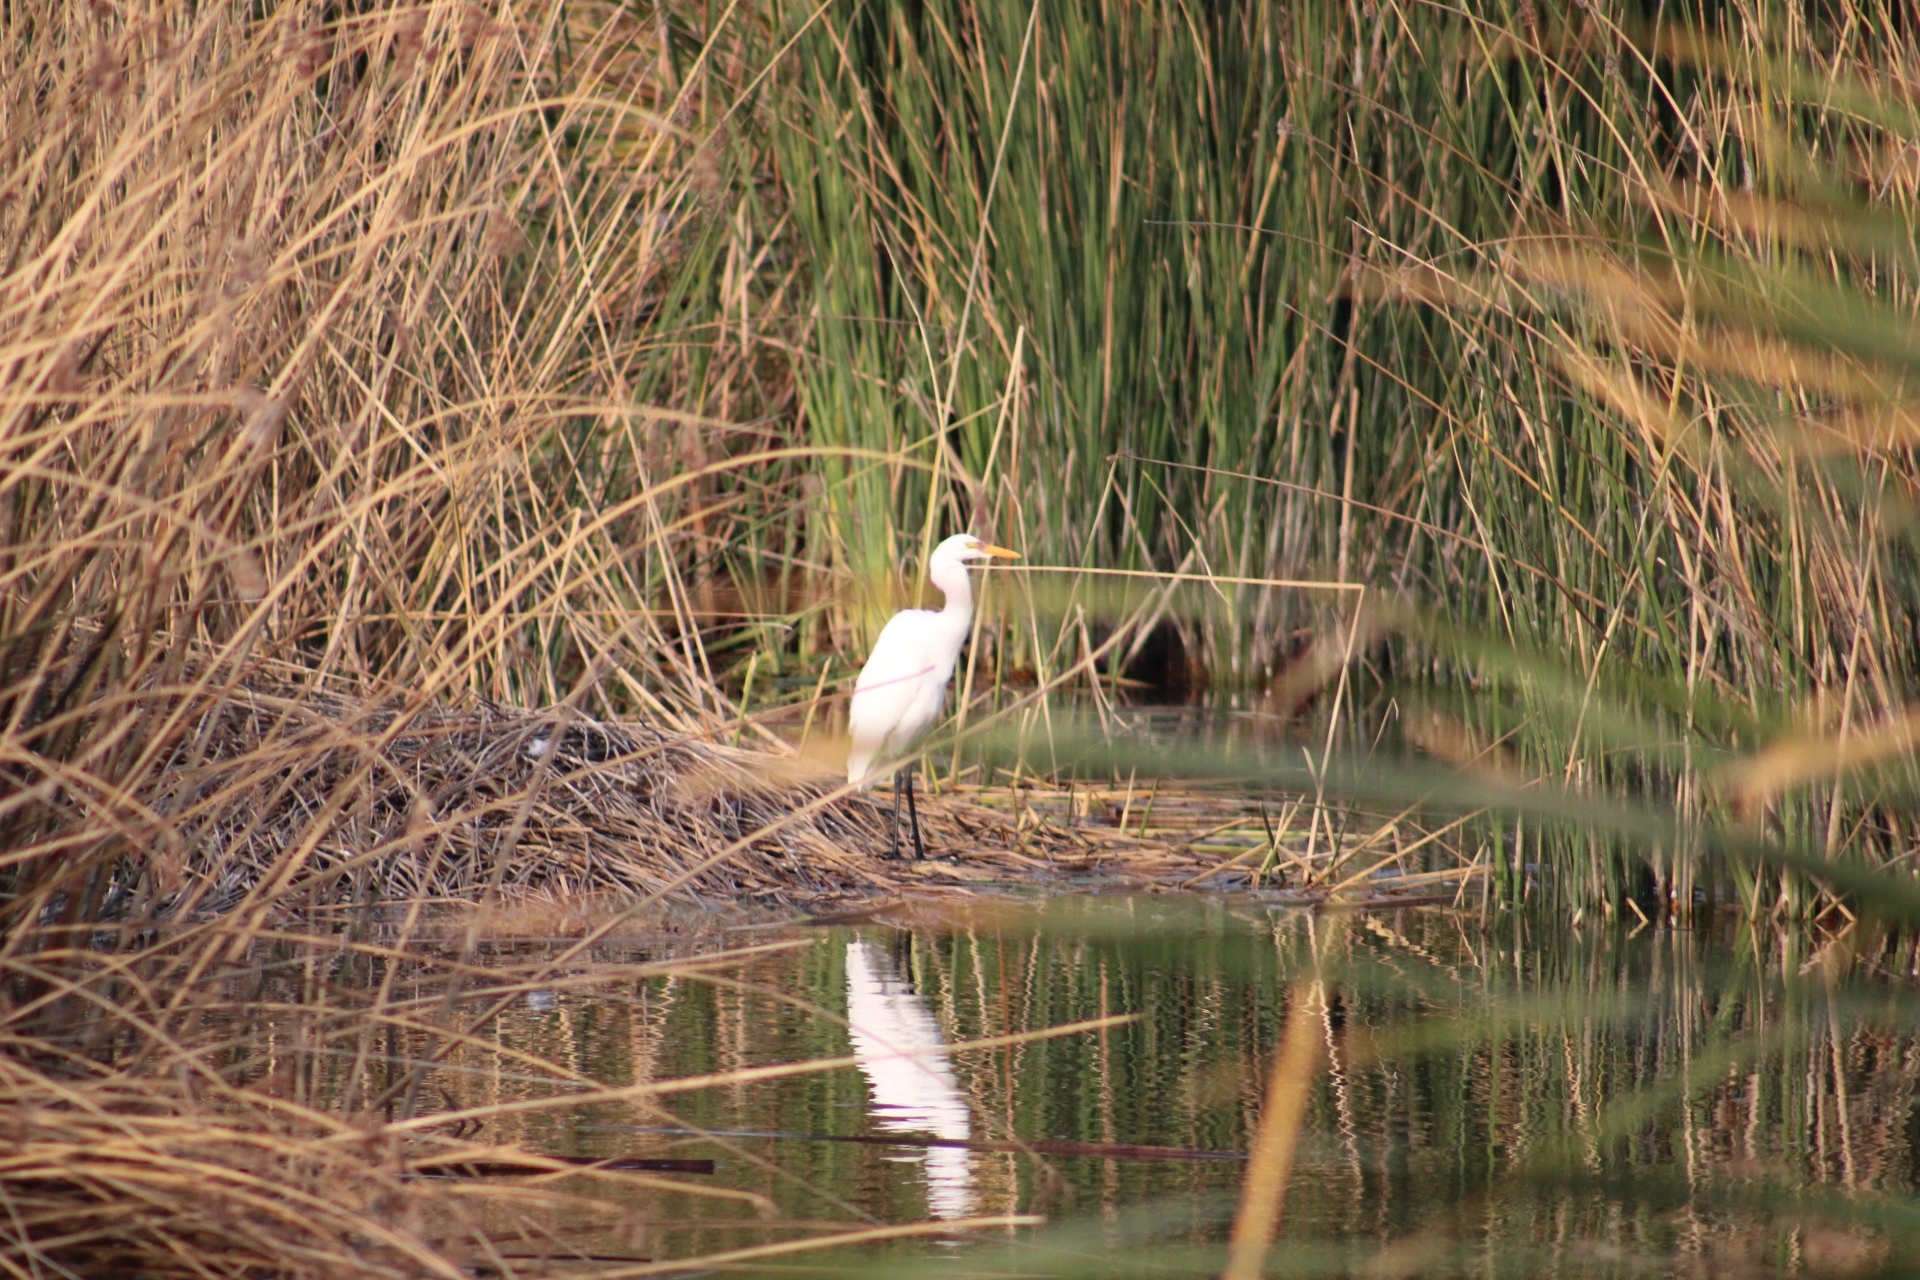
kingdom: Animalia
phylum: Chordata
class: Aves
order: Pelecaniformes
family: Ardeidae
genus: Ardea
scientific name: Ardea alba
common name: Great egret
